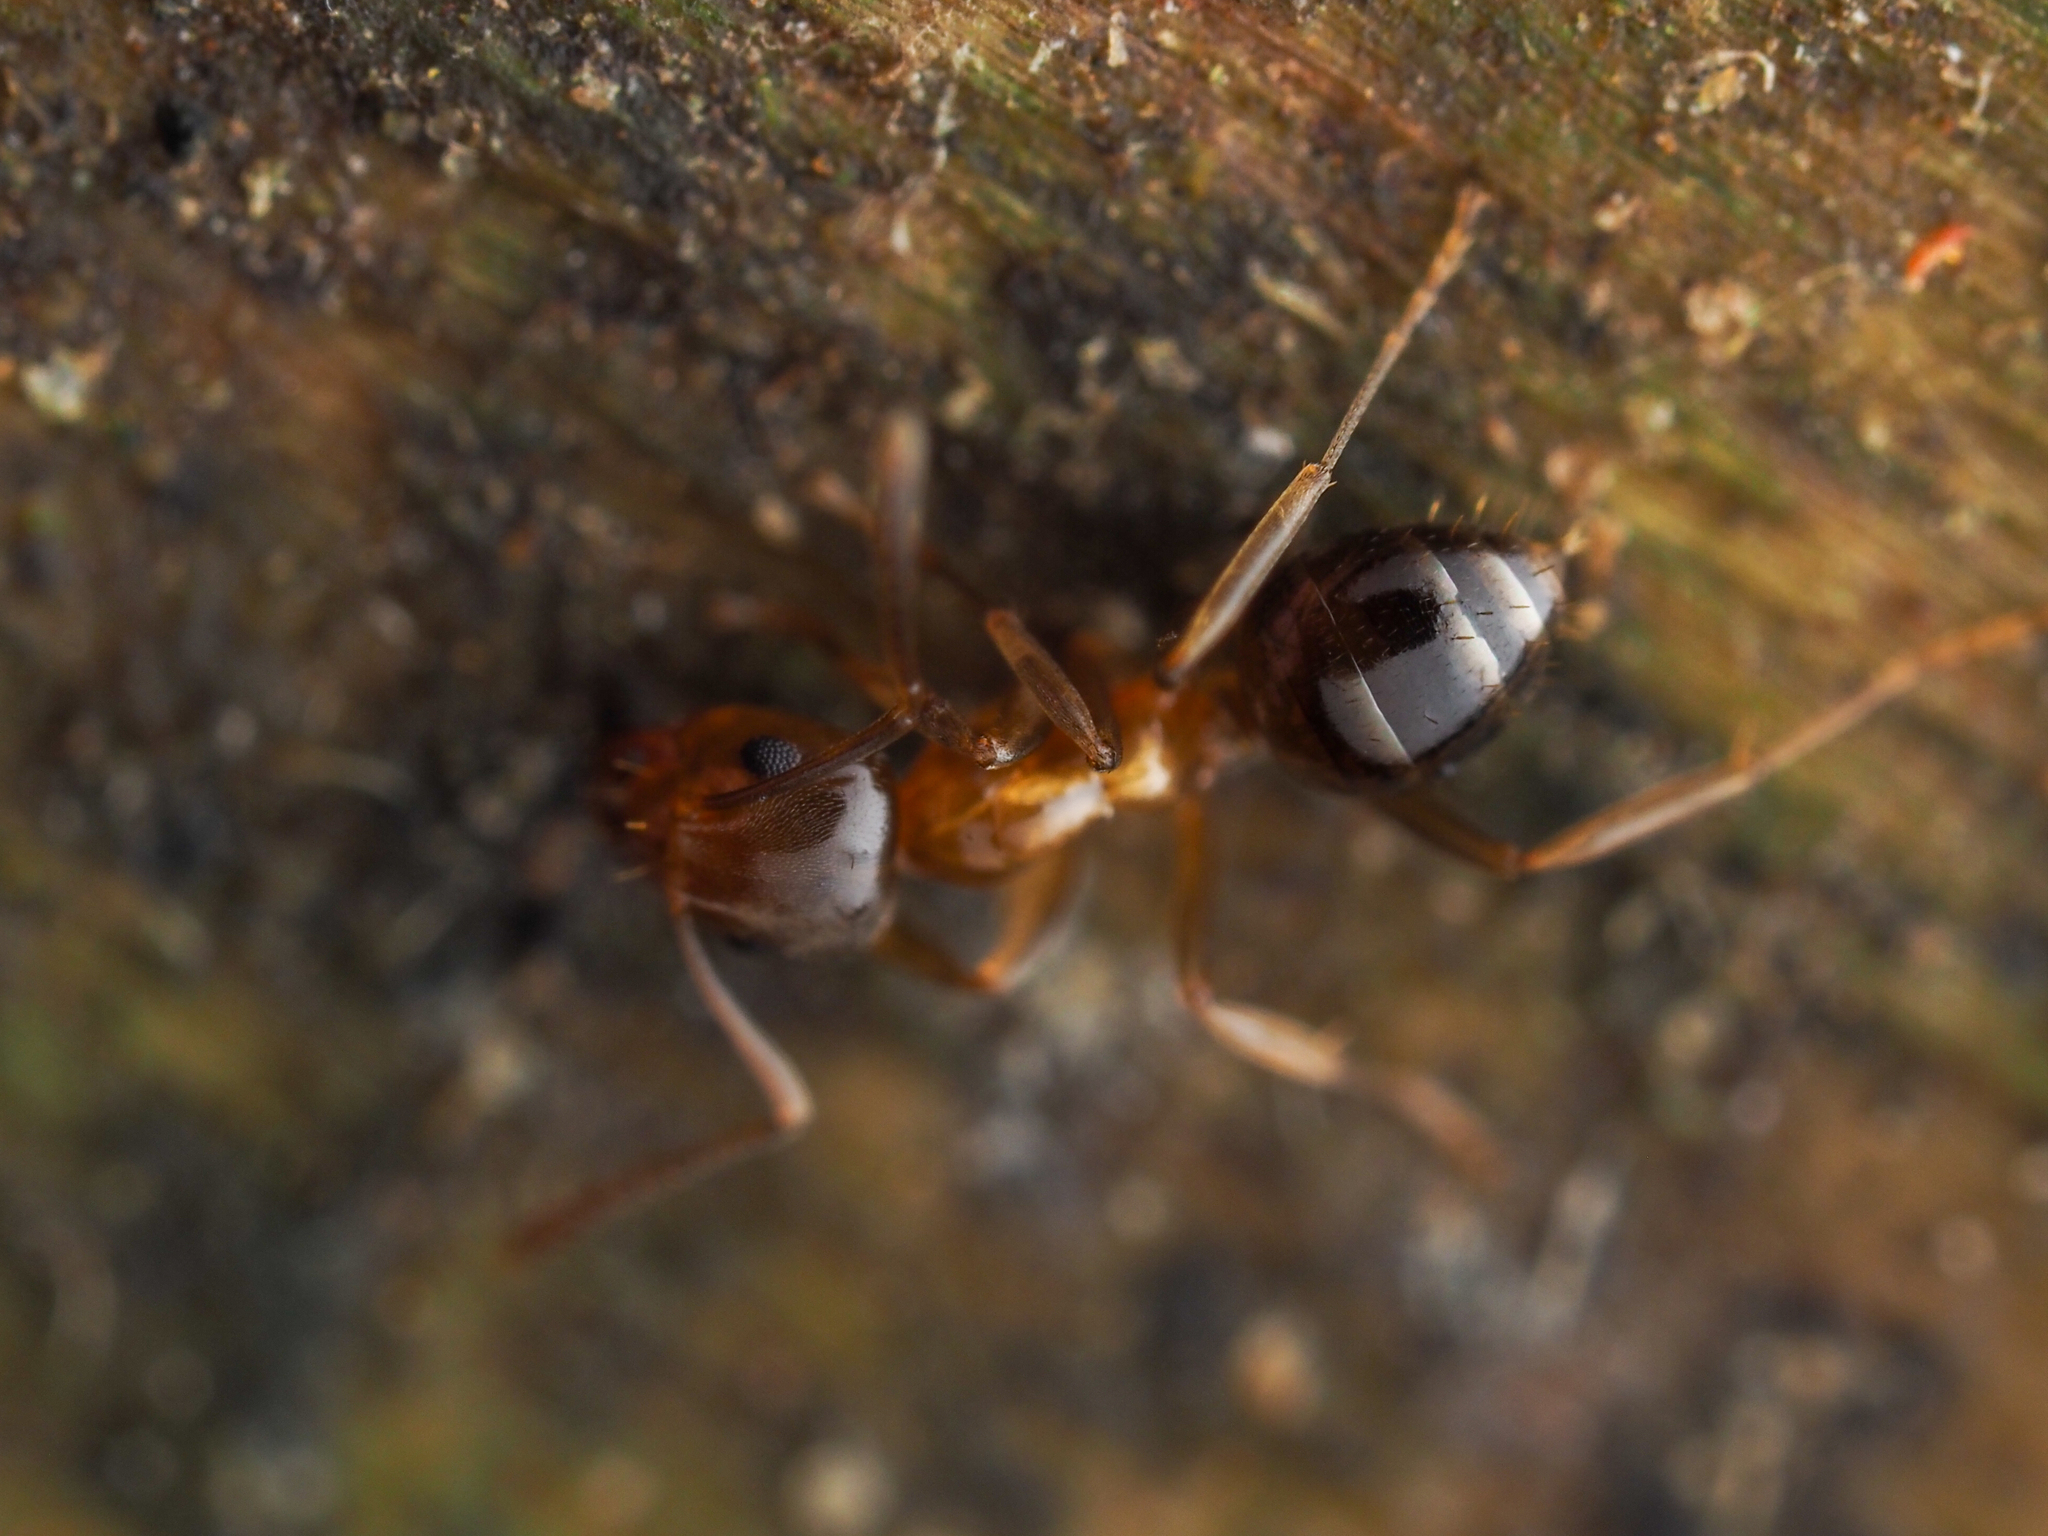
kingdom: Animalia
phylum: Arthropoda
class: Insecta
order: Hymenoptera
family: Formicidae
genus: Prolasius
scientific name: Prolasius advenus
